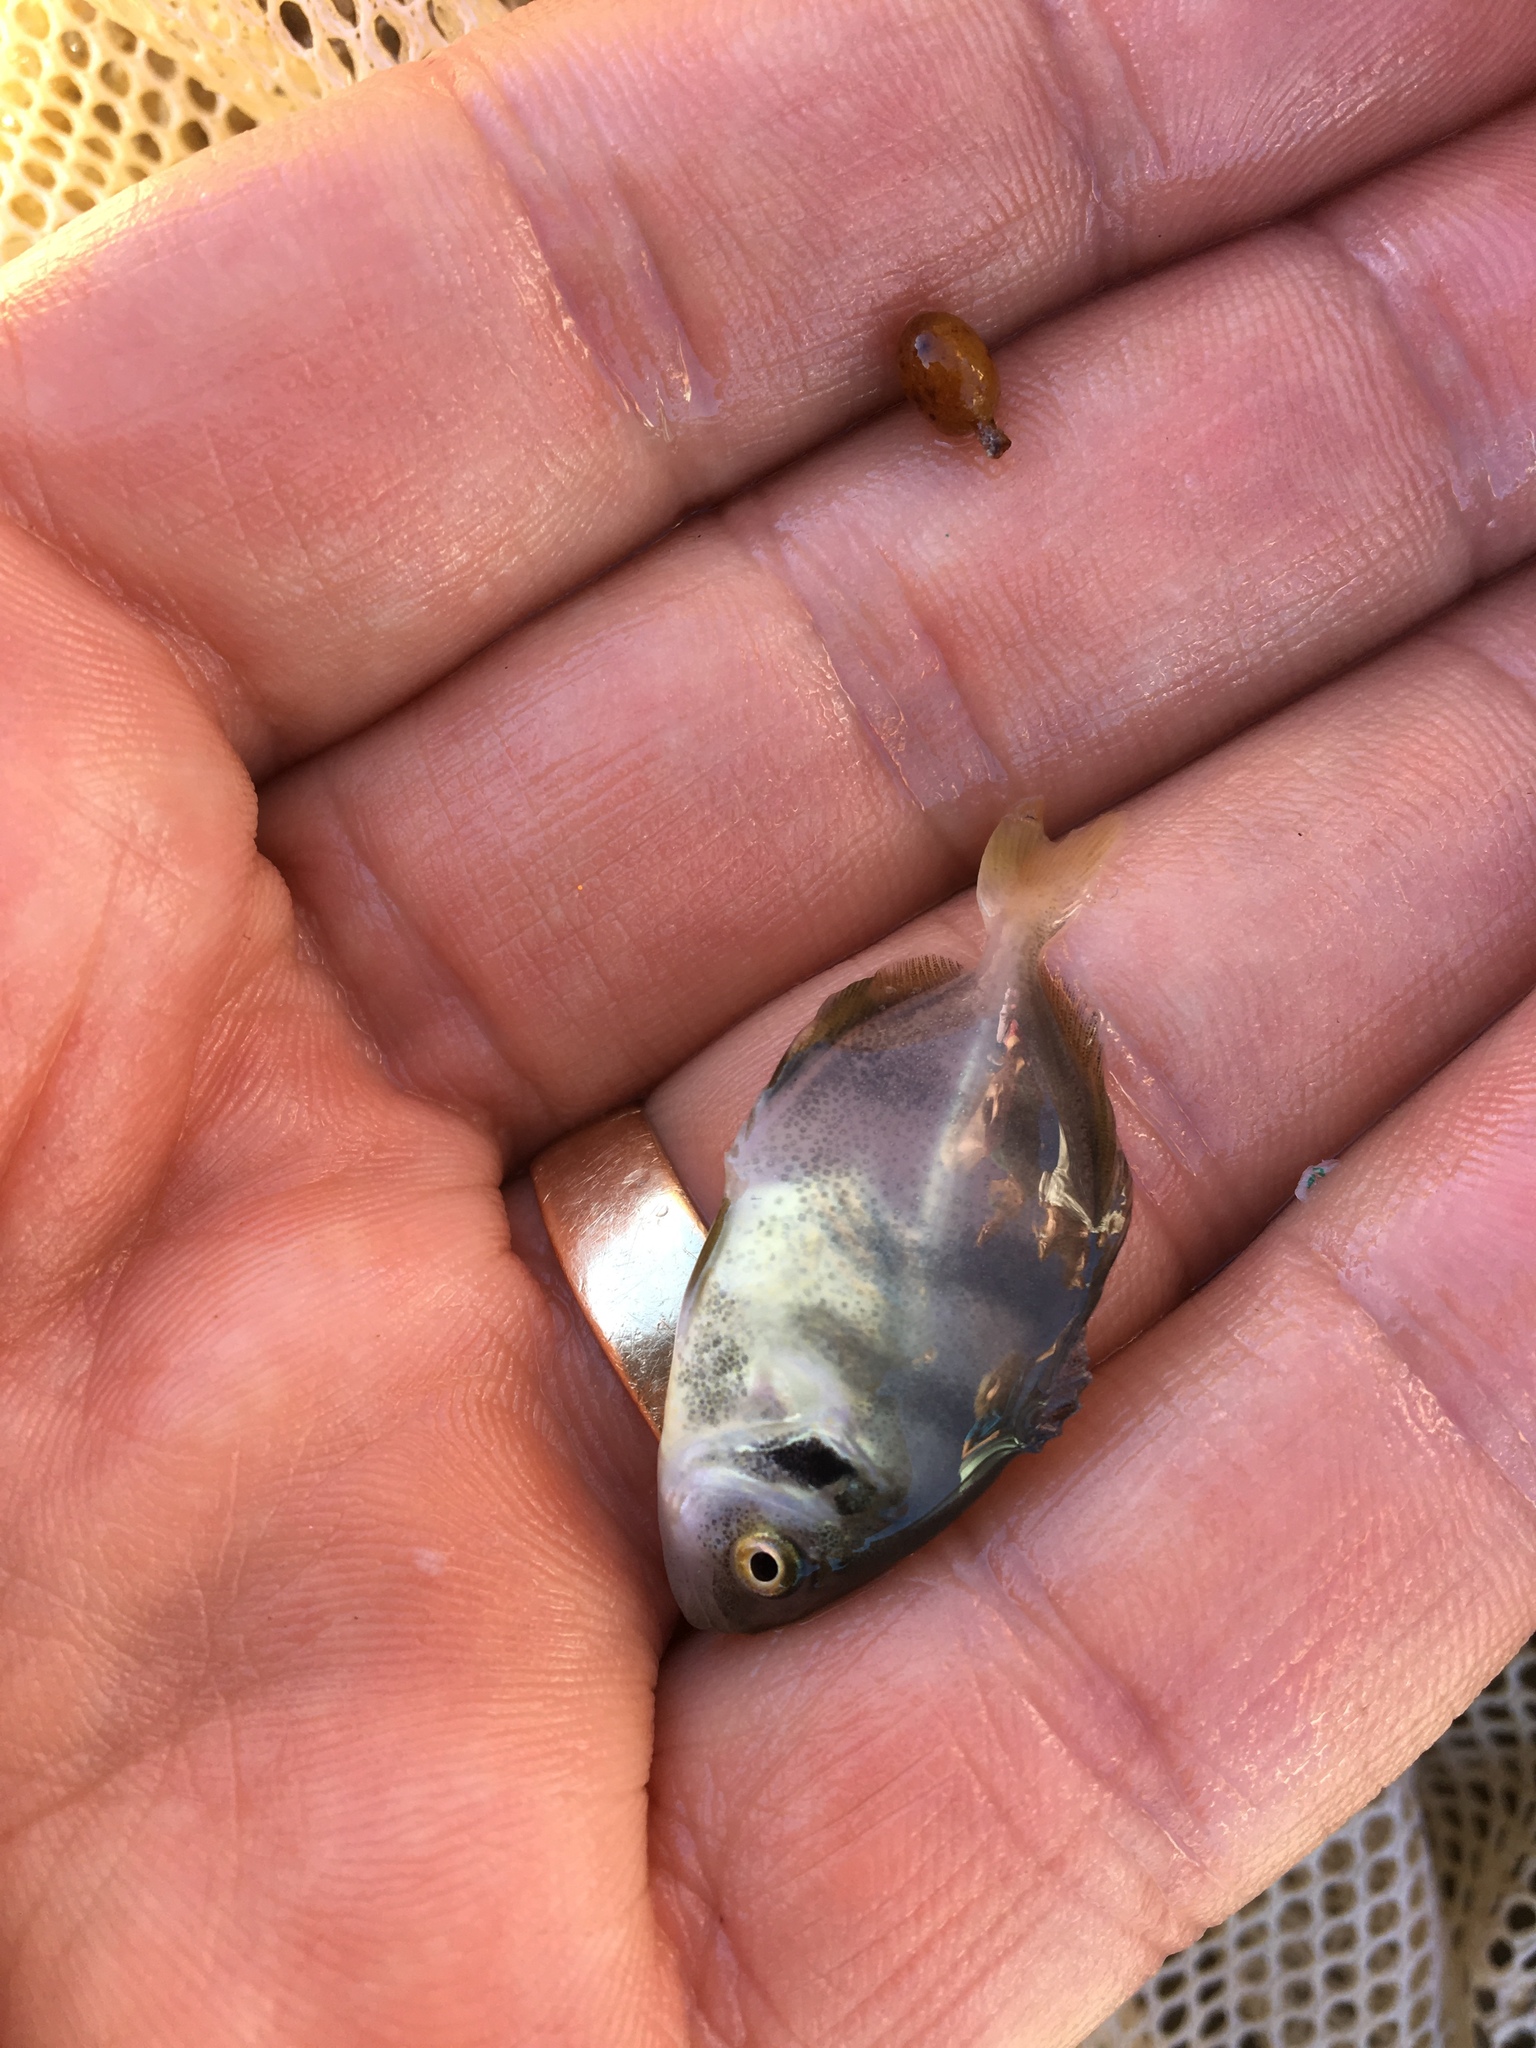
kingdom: Animalia
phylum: Chordata
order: Perciformes
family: Carangidae
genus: Hemicaranx
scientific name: Hemicaranx amblyrhynchus
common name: Bluntnose jack
